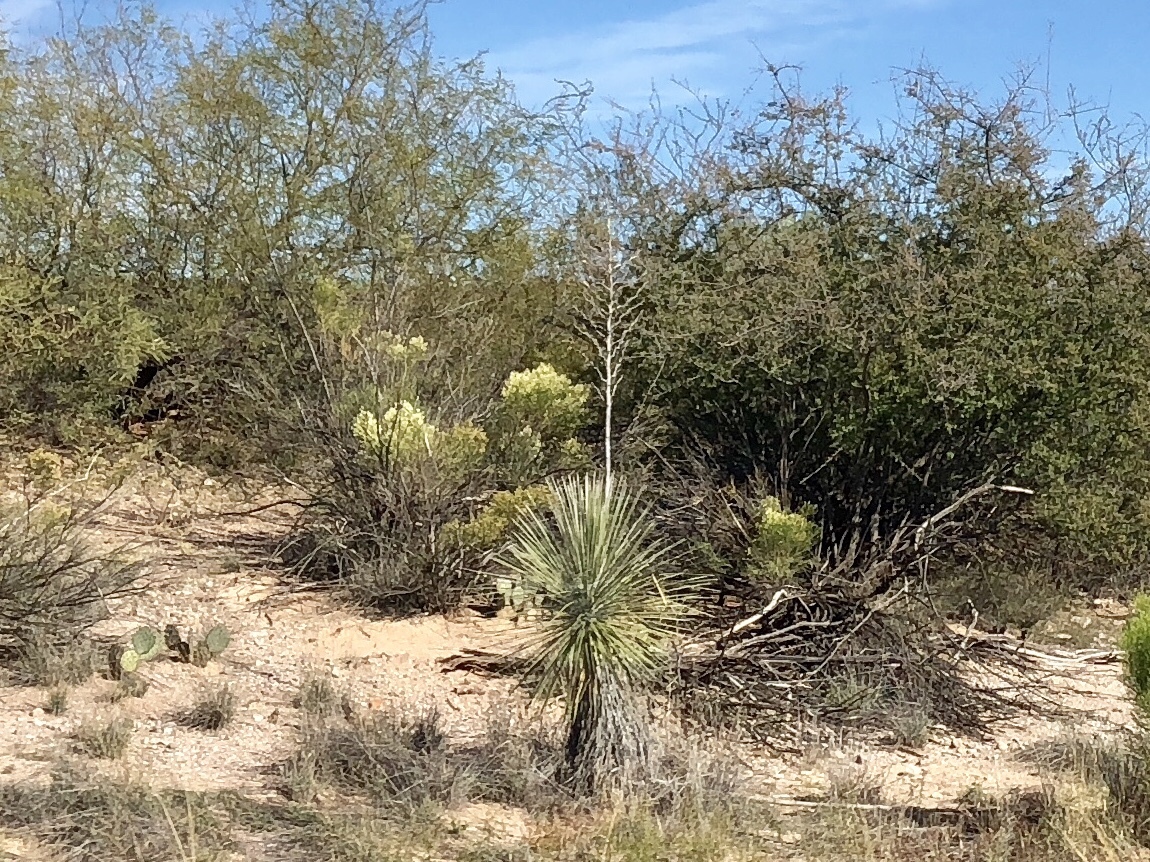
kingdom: Plantae
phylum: Tracheophyta
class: Liliopsida
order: Asparagales
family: Asparagaceae
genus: Yucca
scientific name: Yucca elata
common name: Palmella
